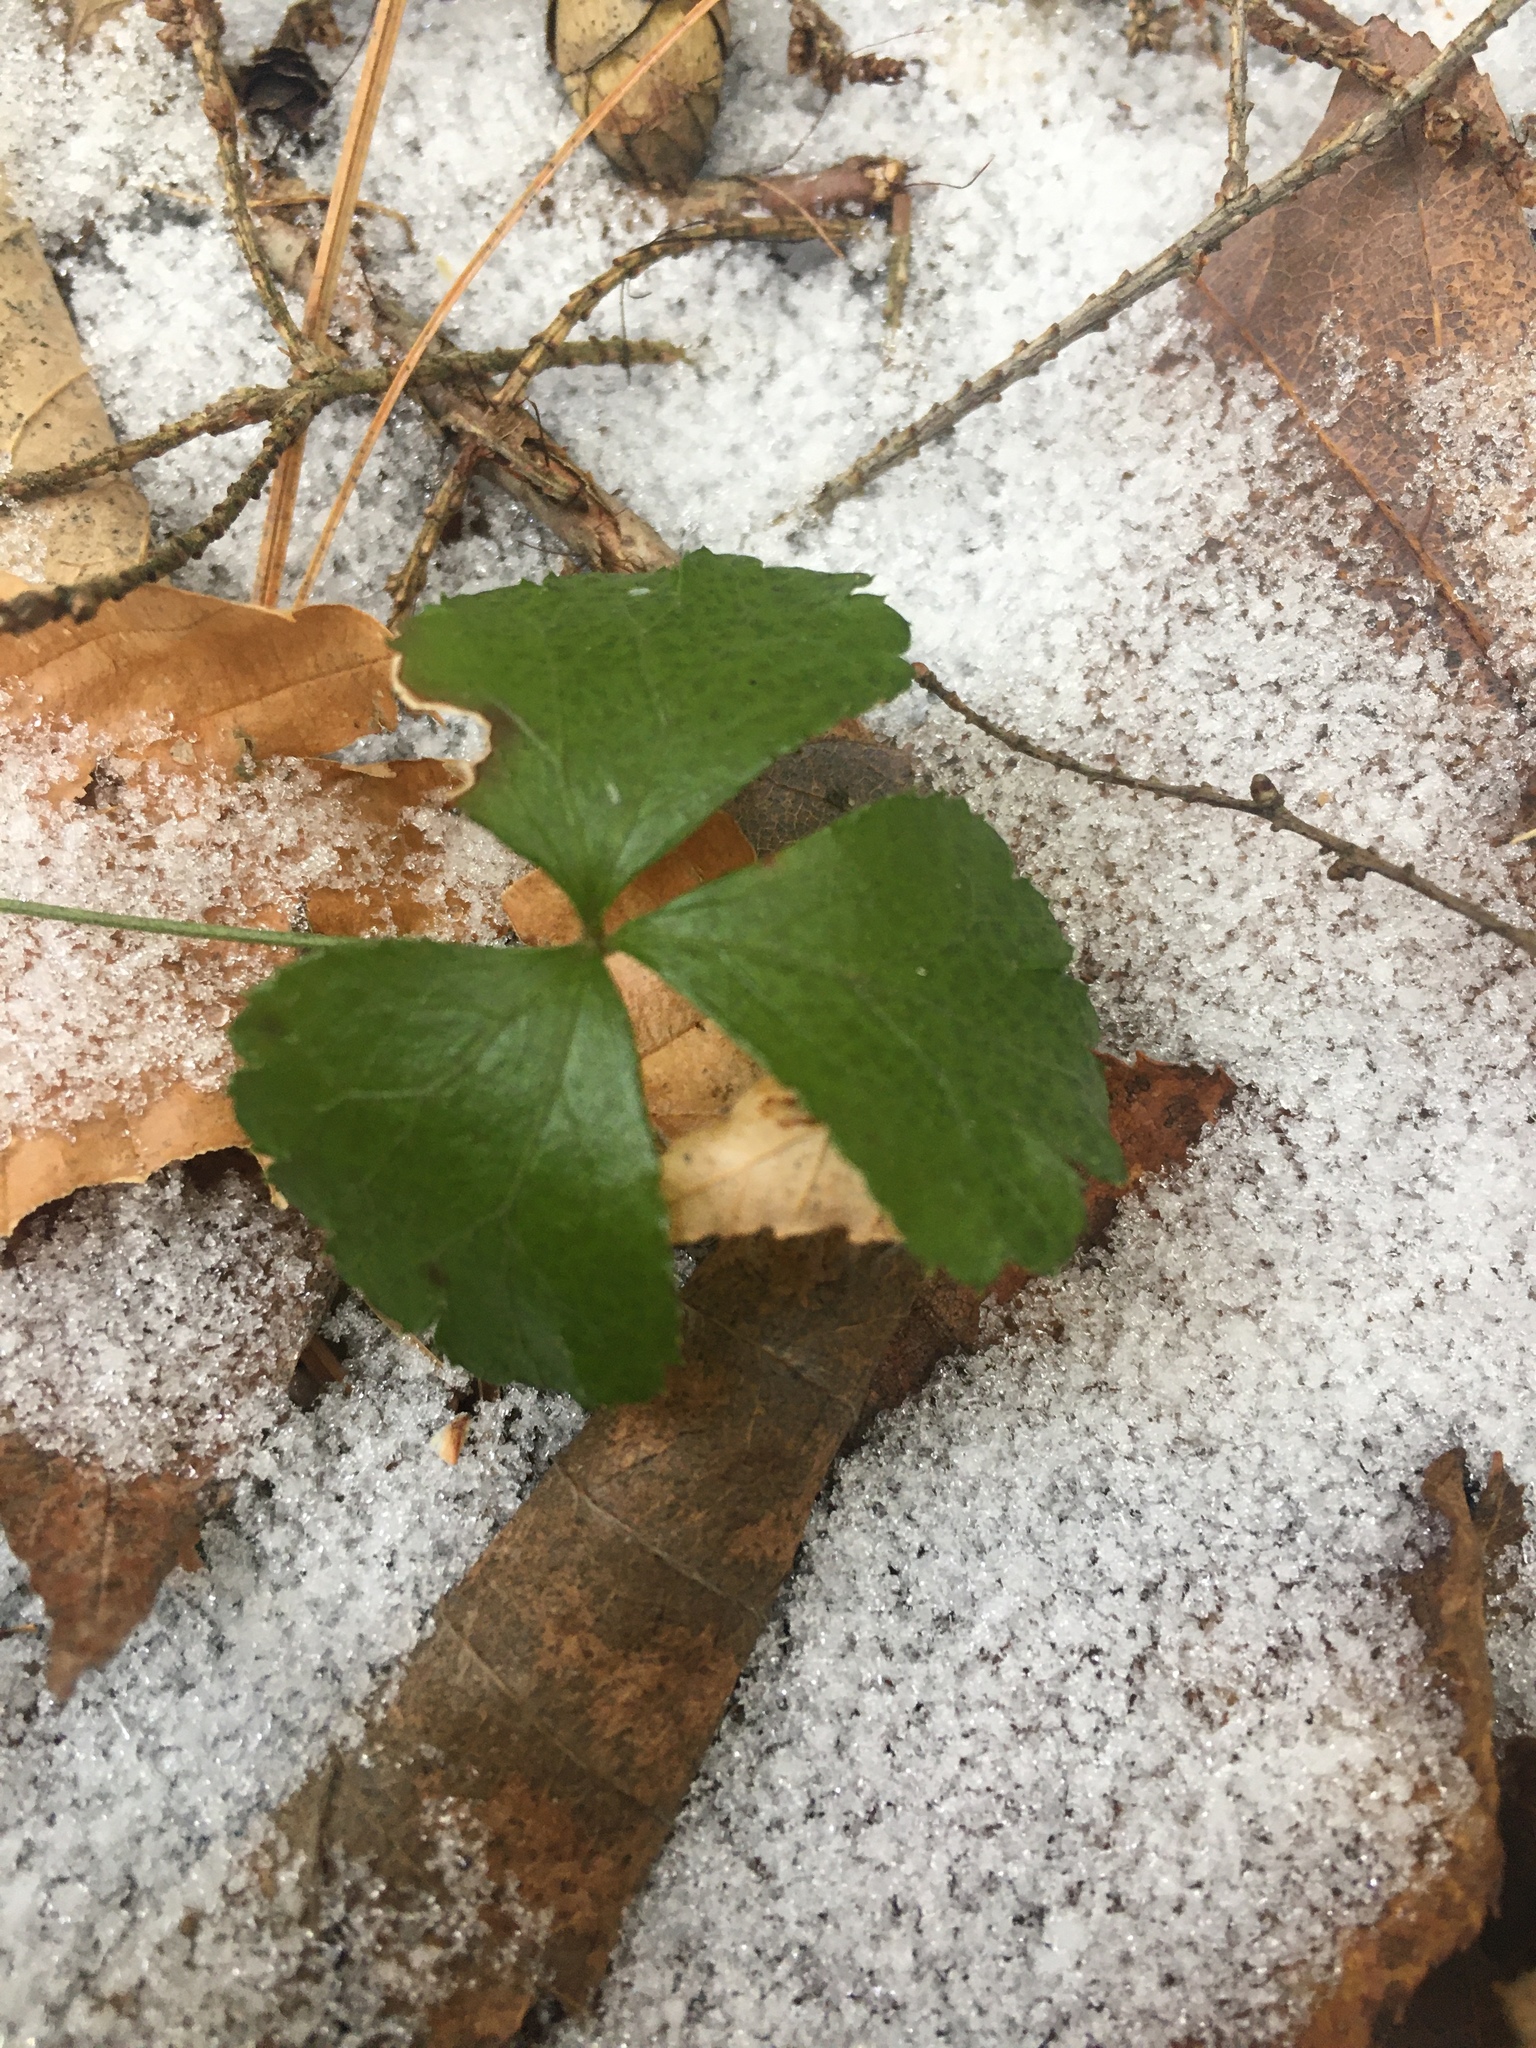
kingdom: Plantae
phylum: Tracheophyta
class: Magnoliopsida
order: Ranunculales
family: Ranunculaceae
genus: Coptis
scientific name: Coptis trifolia
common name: Canker-root
